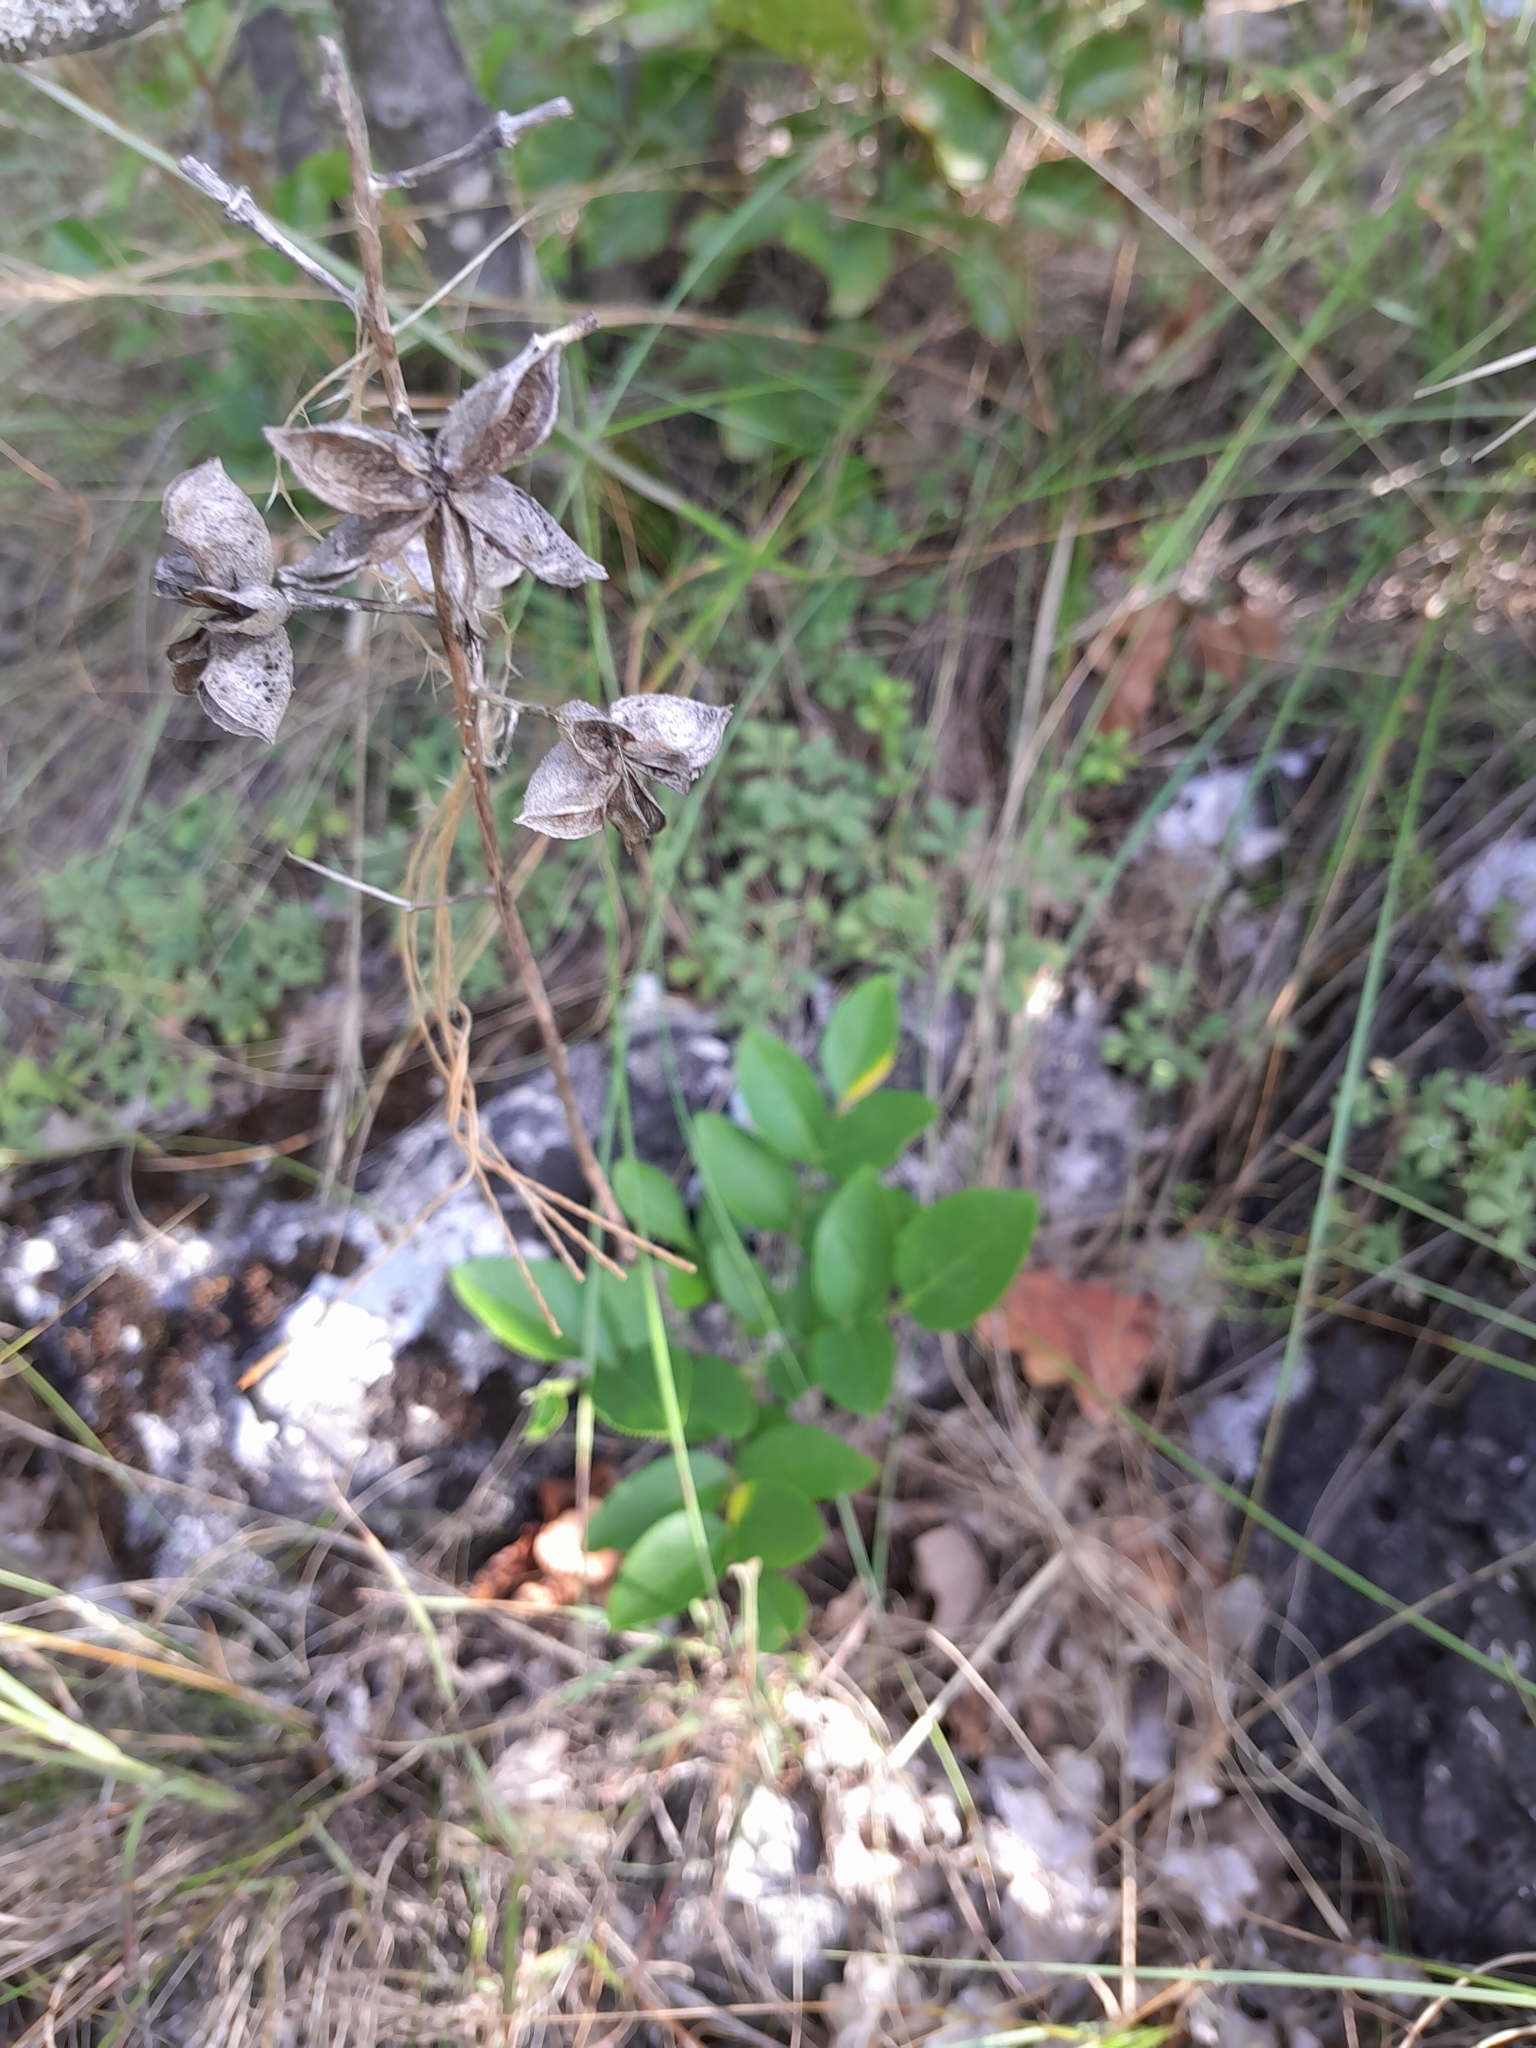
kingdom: Plantae
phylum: Tracheophyta
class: Magnoliopsida
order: Sapindales
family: Rutaceae
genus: Dictamnus
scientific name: Dictamnus albus
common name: Gasplant
